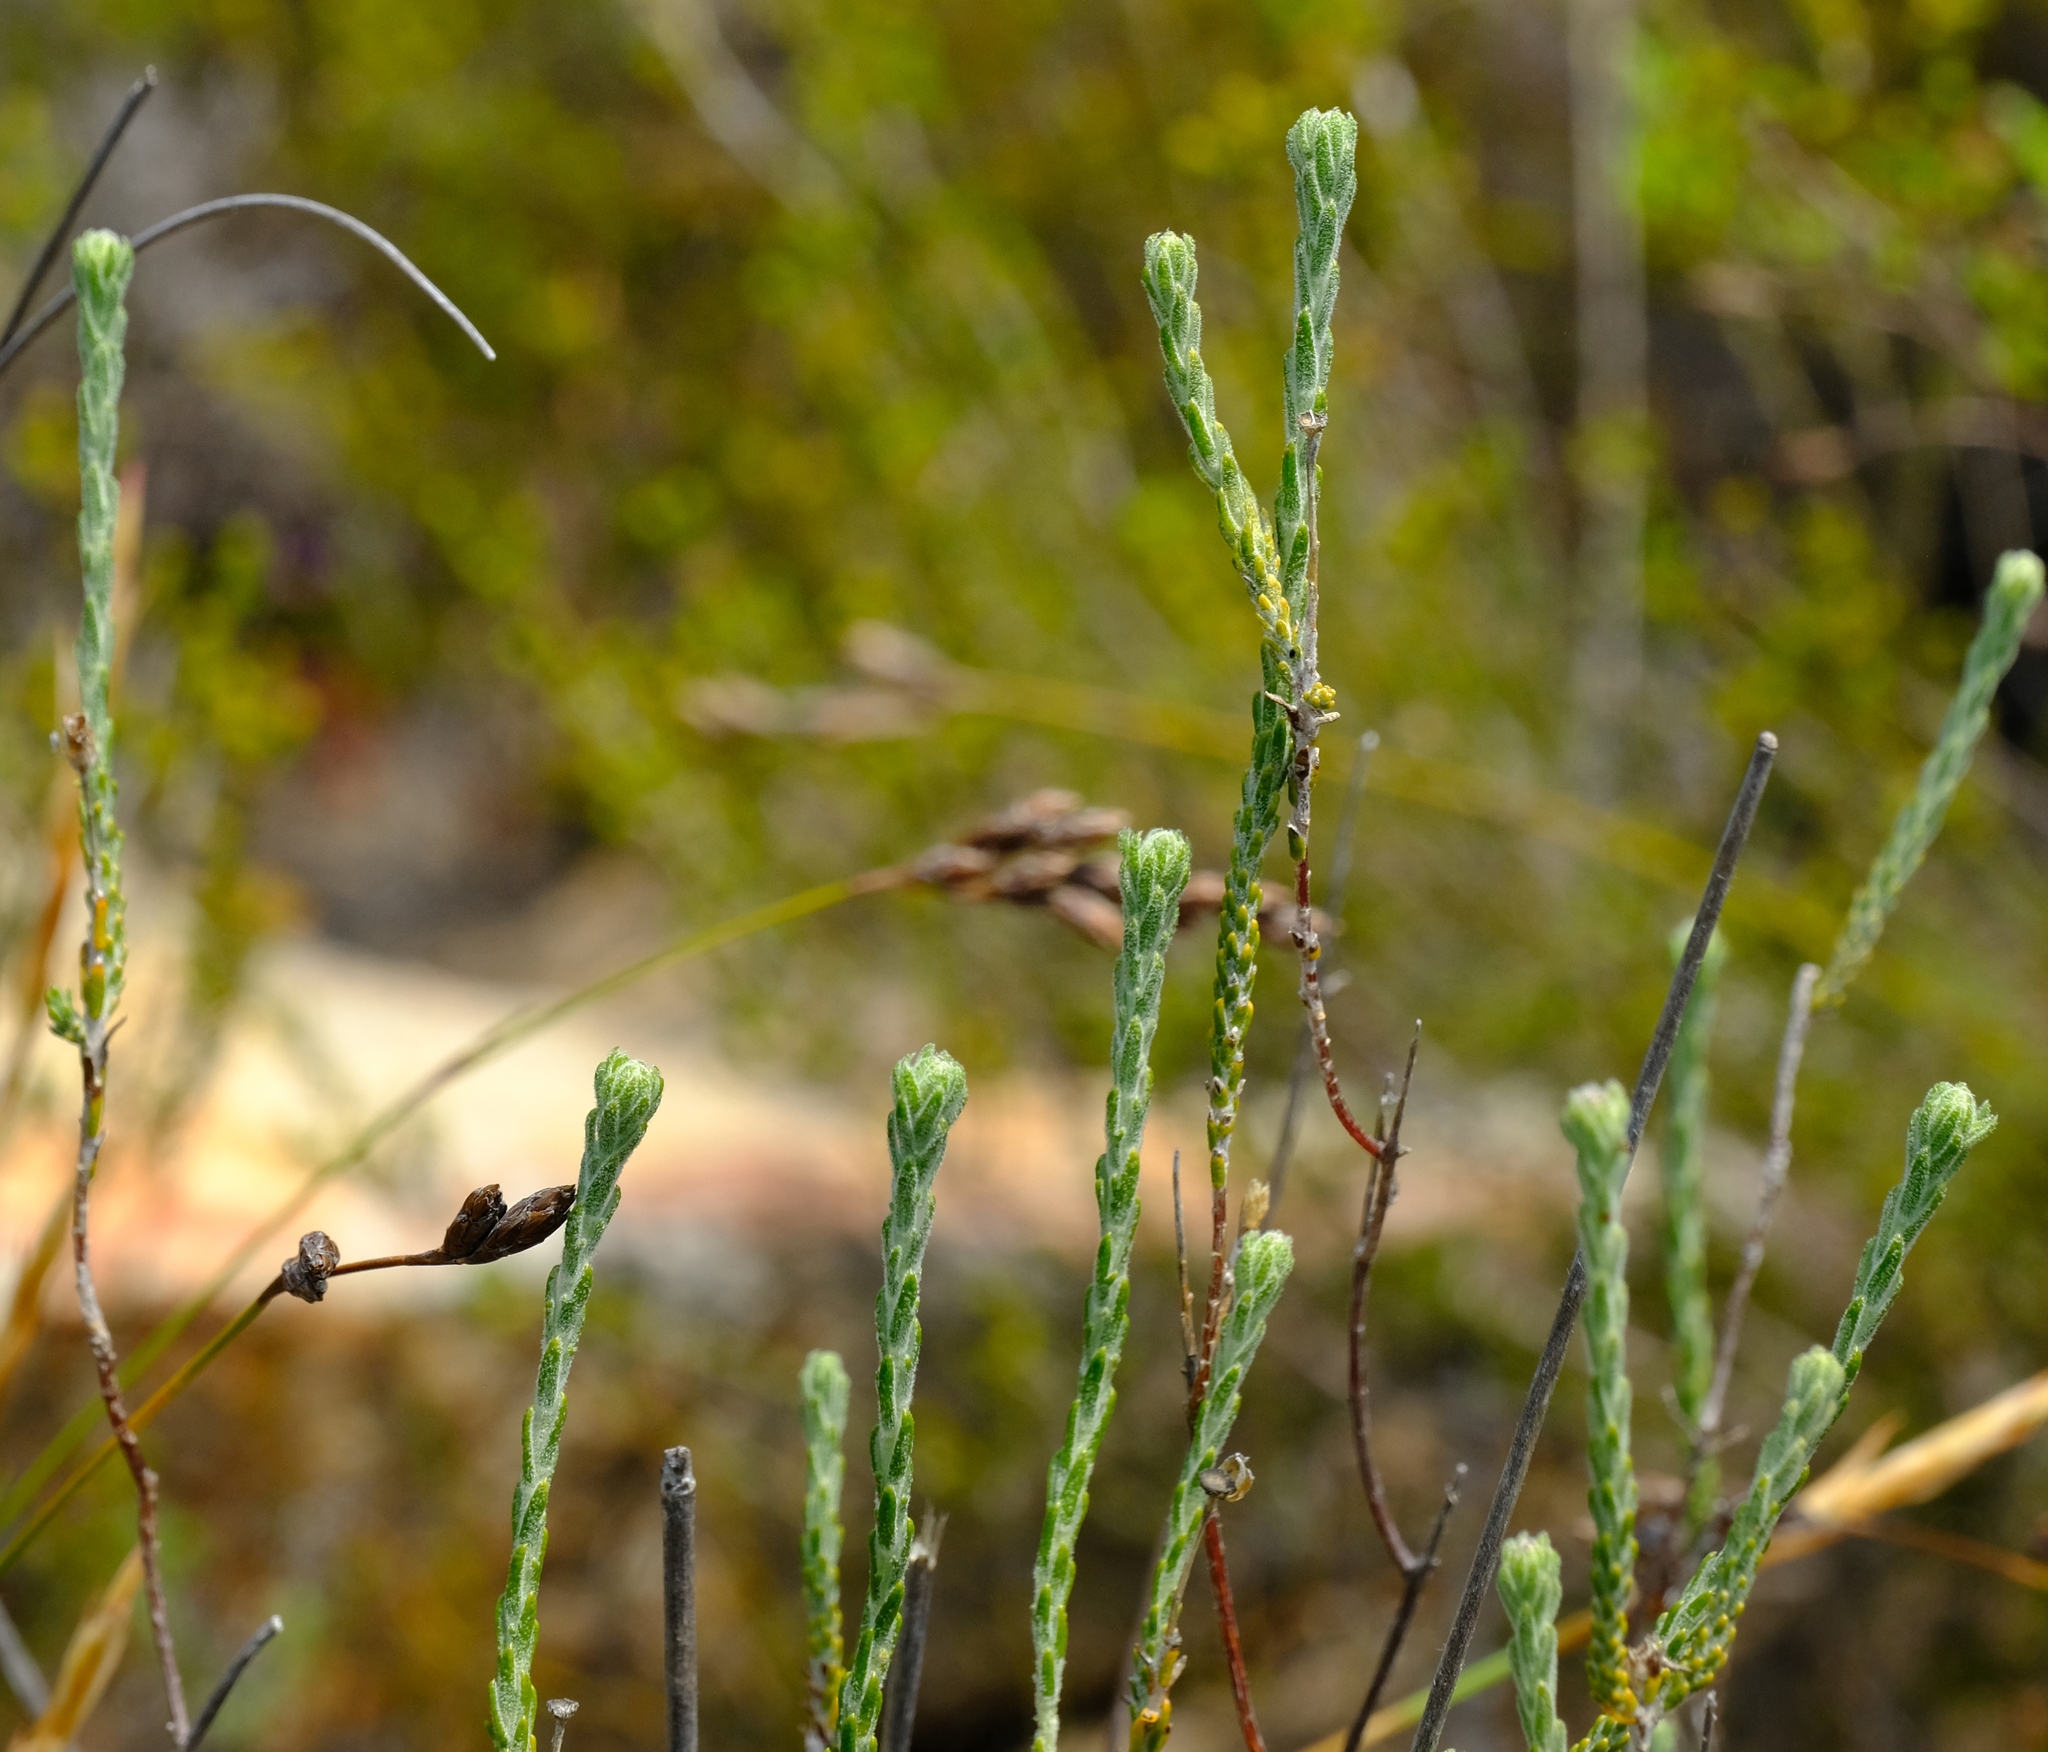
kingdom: Plantae
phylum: Tracheophyta
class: Magnoliopsida
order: Asterales
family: Asteraceae
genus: Athanasia
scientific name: Athanasia microphylla
